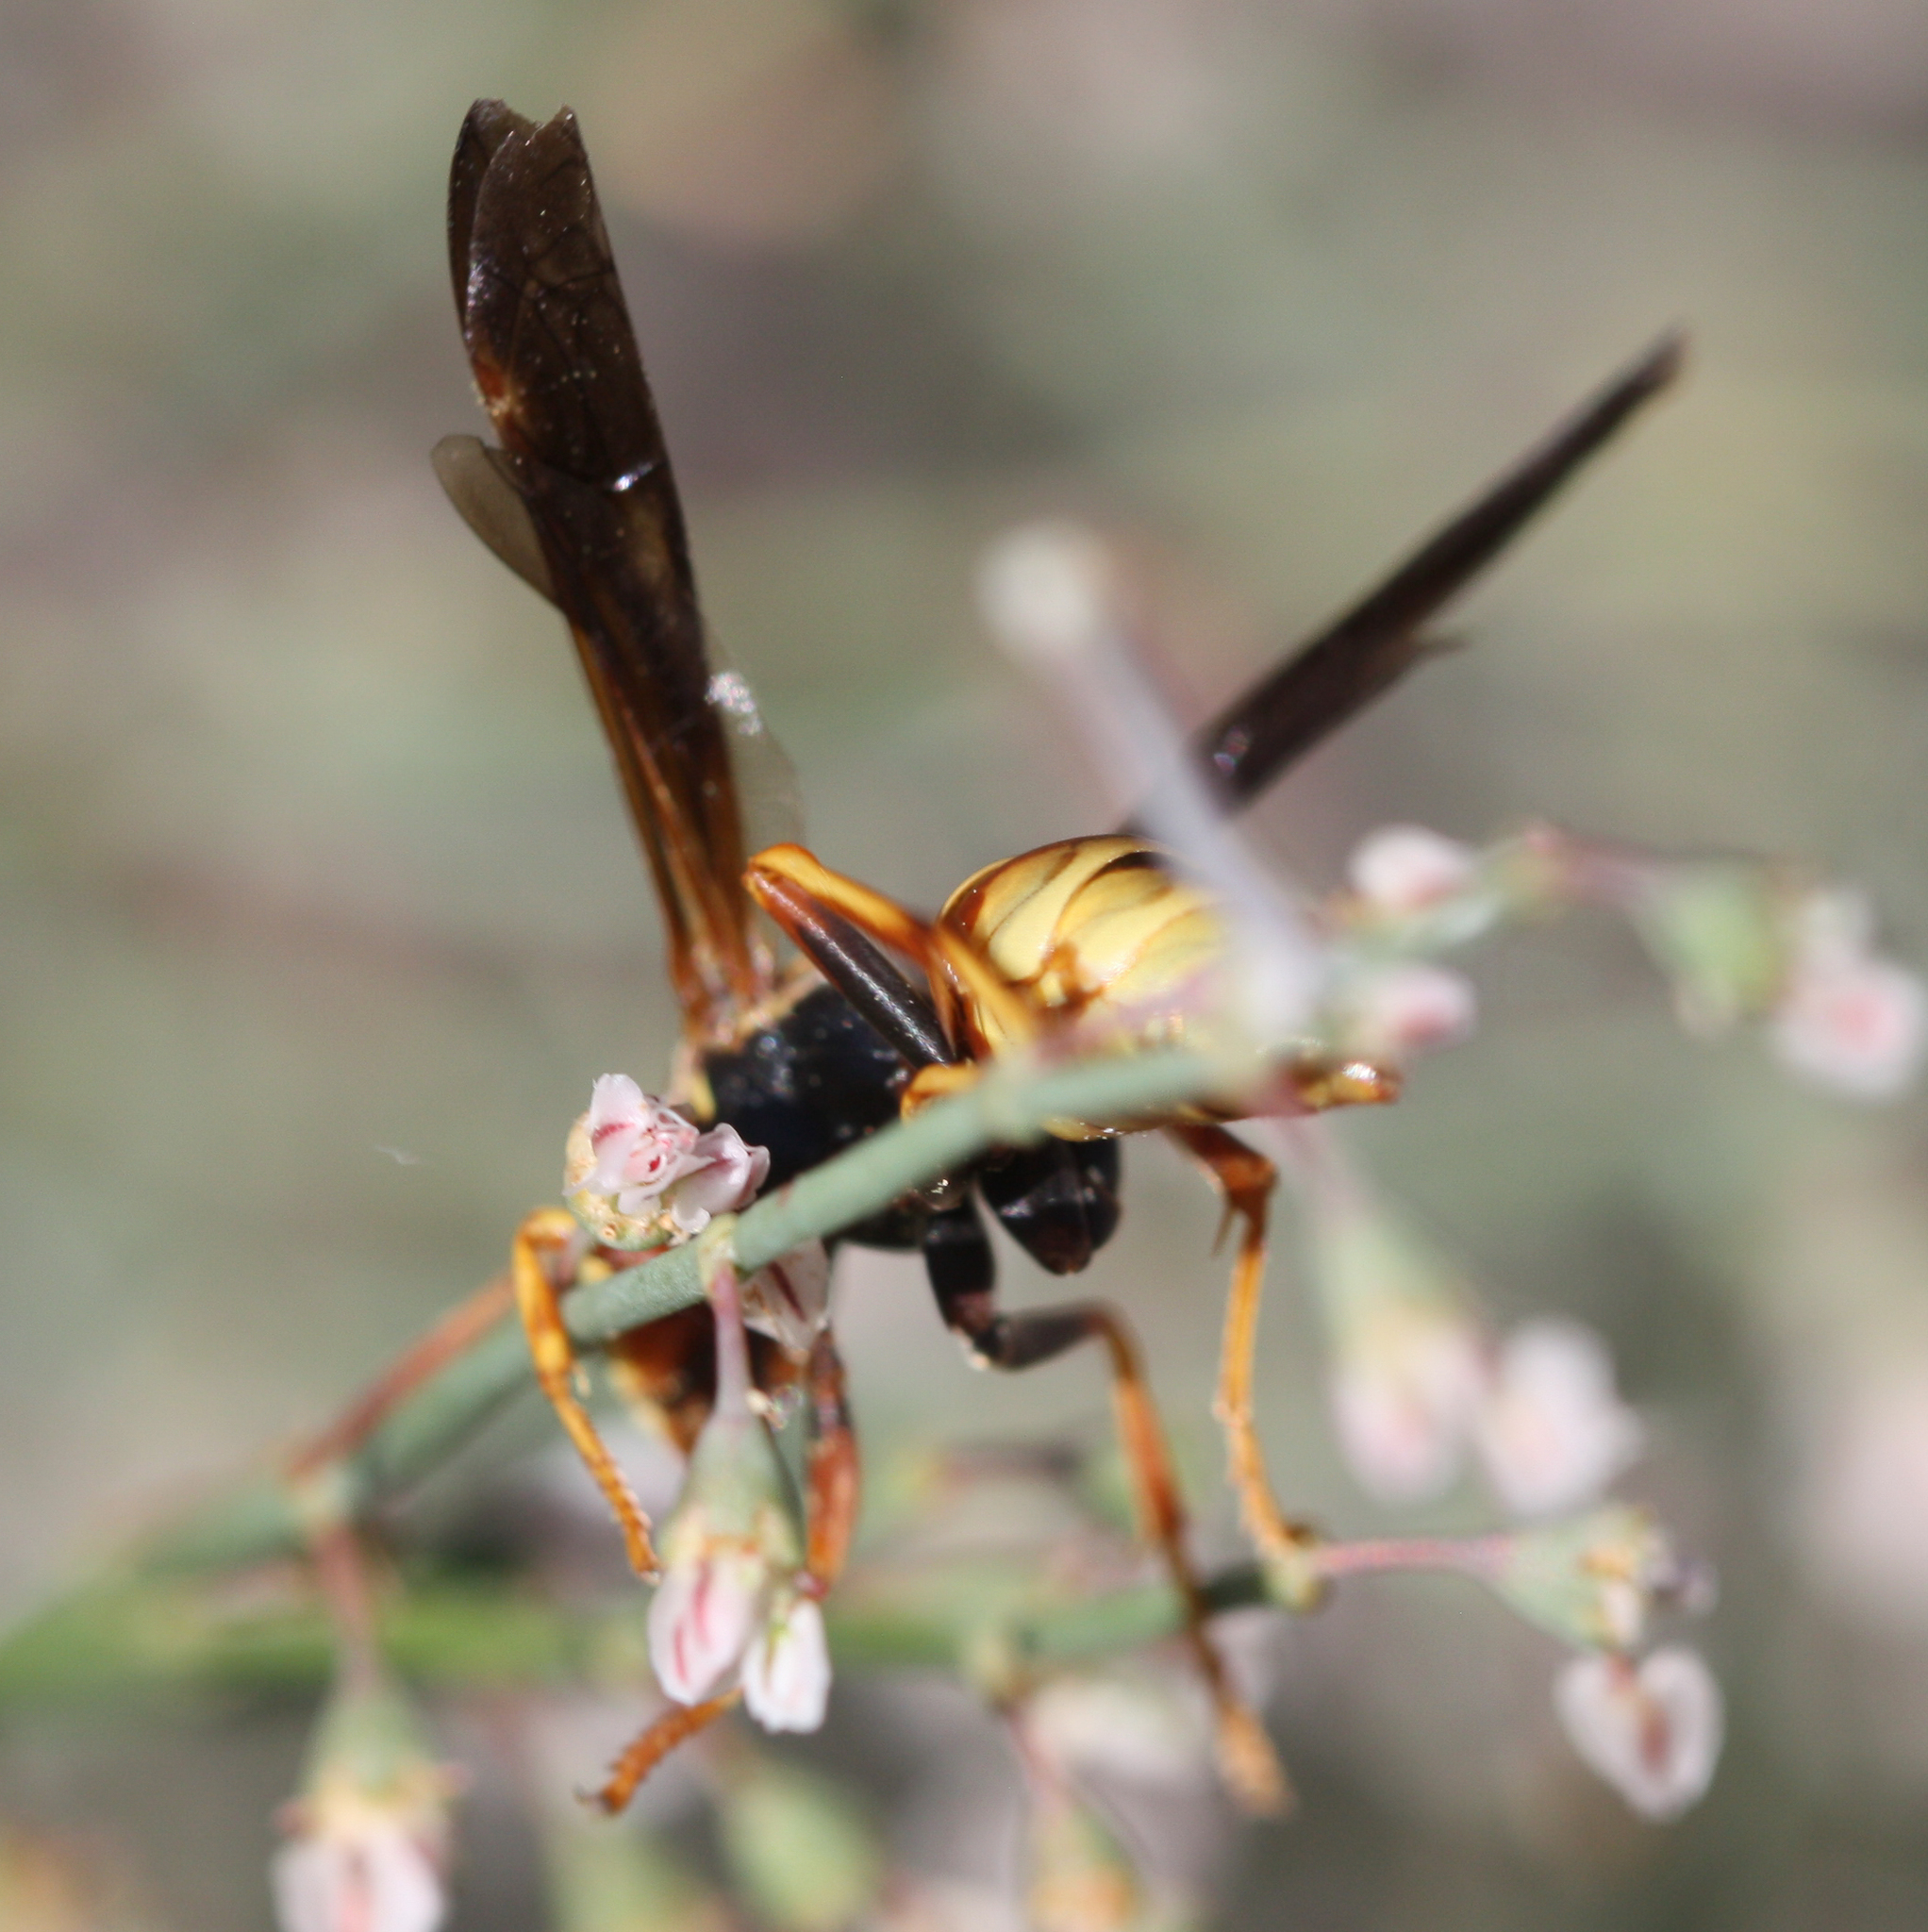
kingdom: Animalia
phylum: Arthropoda
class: Insecta
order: Hymenoptera
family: Eumenidae
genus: Polistes
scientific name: Polistes aurifer
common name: Paper wasp
